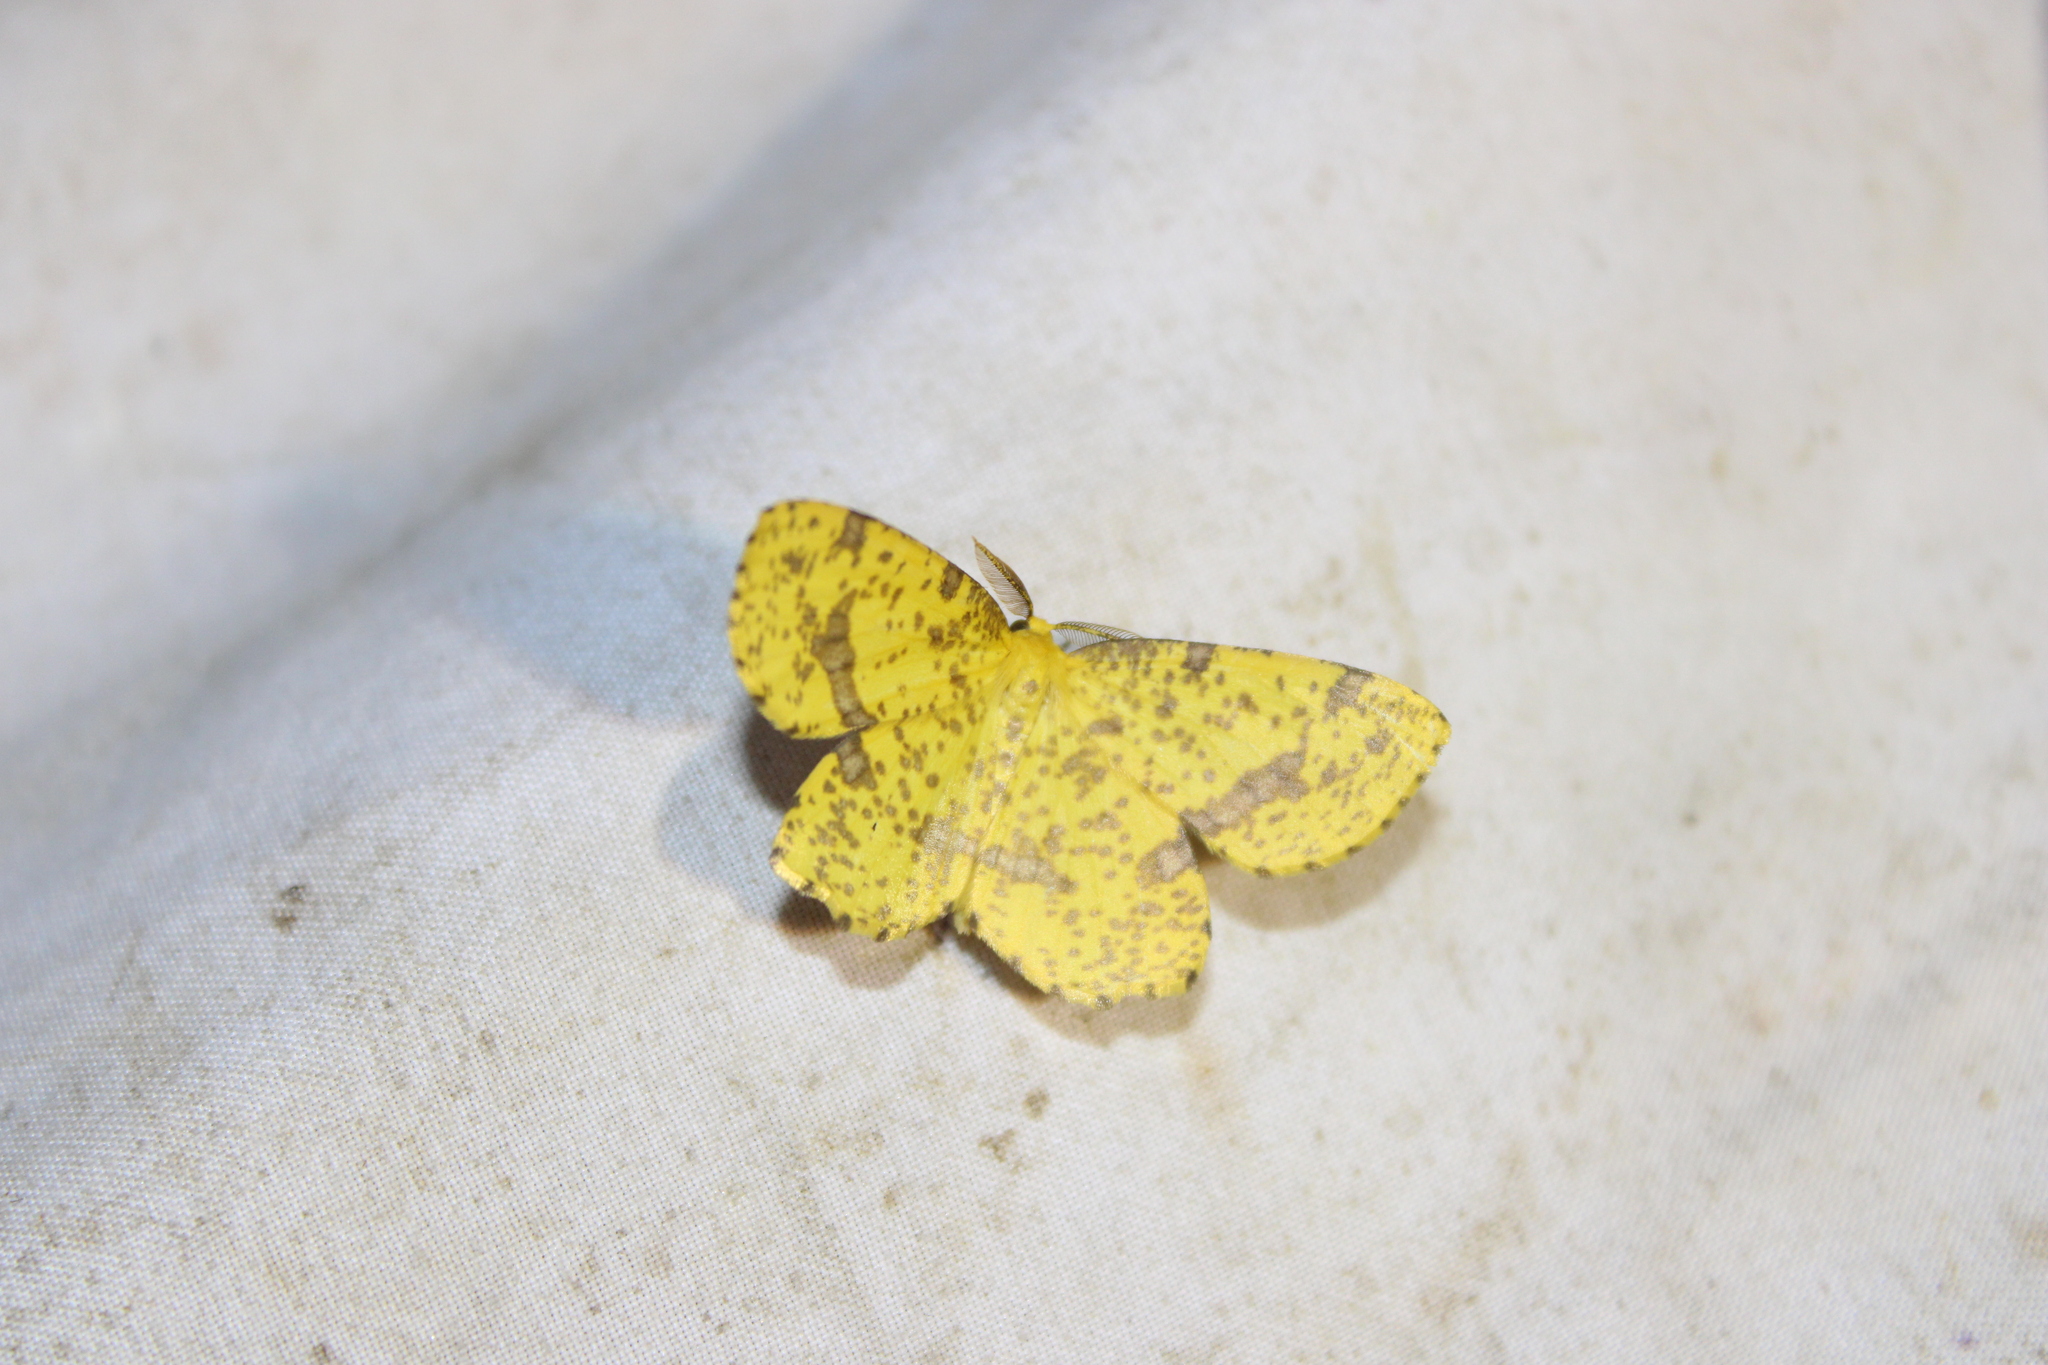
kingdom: Animalia
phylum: Arthropoda
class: Insecta
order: Lepidoptera
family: Geometridae
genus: Xanthotype
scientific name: Xanthotype
